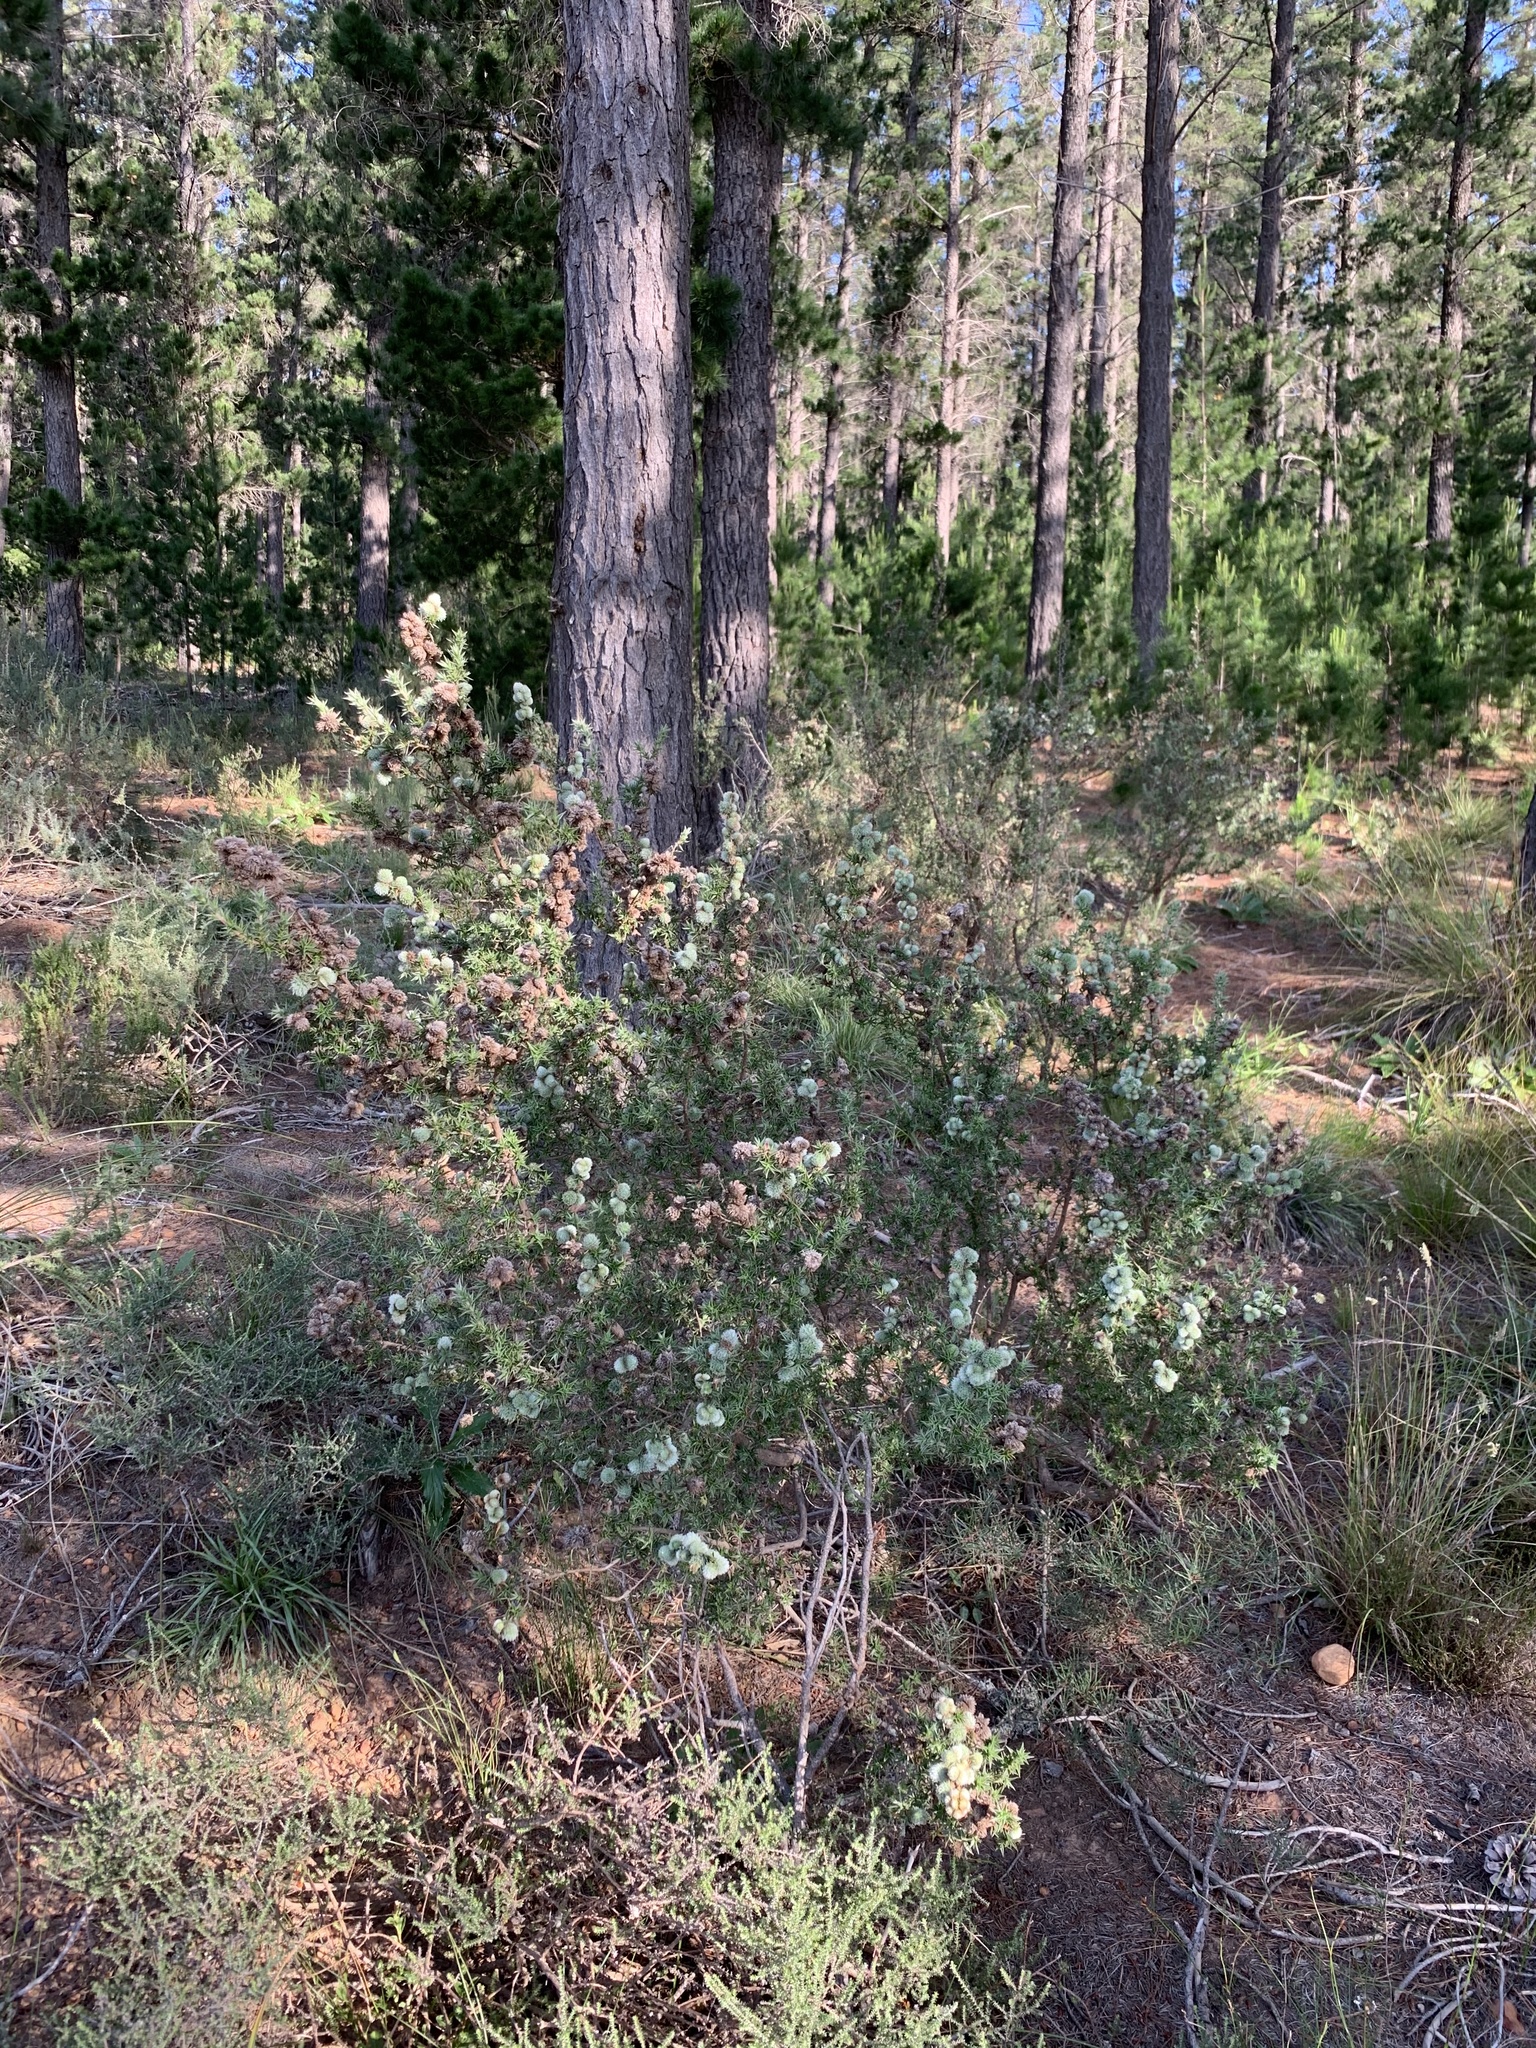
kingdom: Plantae
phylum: Tracheophyta
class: Magnoliopsida
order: Rosales
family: Rosaceae
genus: Cliffortia
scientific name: Cliffortia ruscifolia
